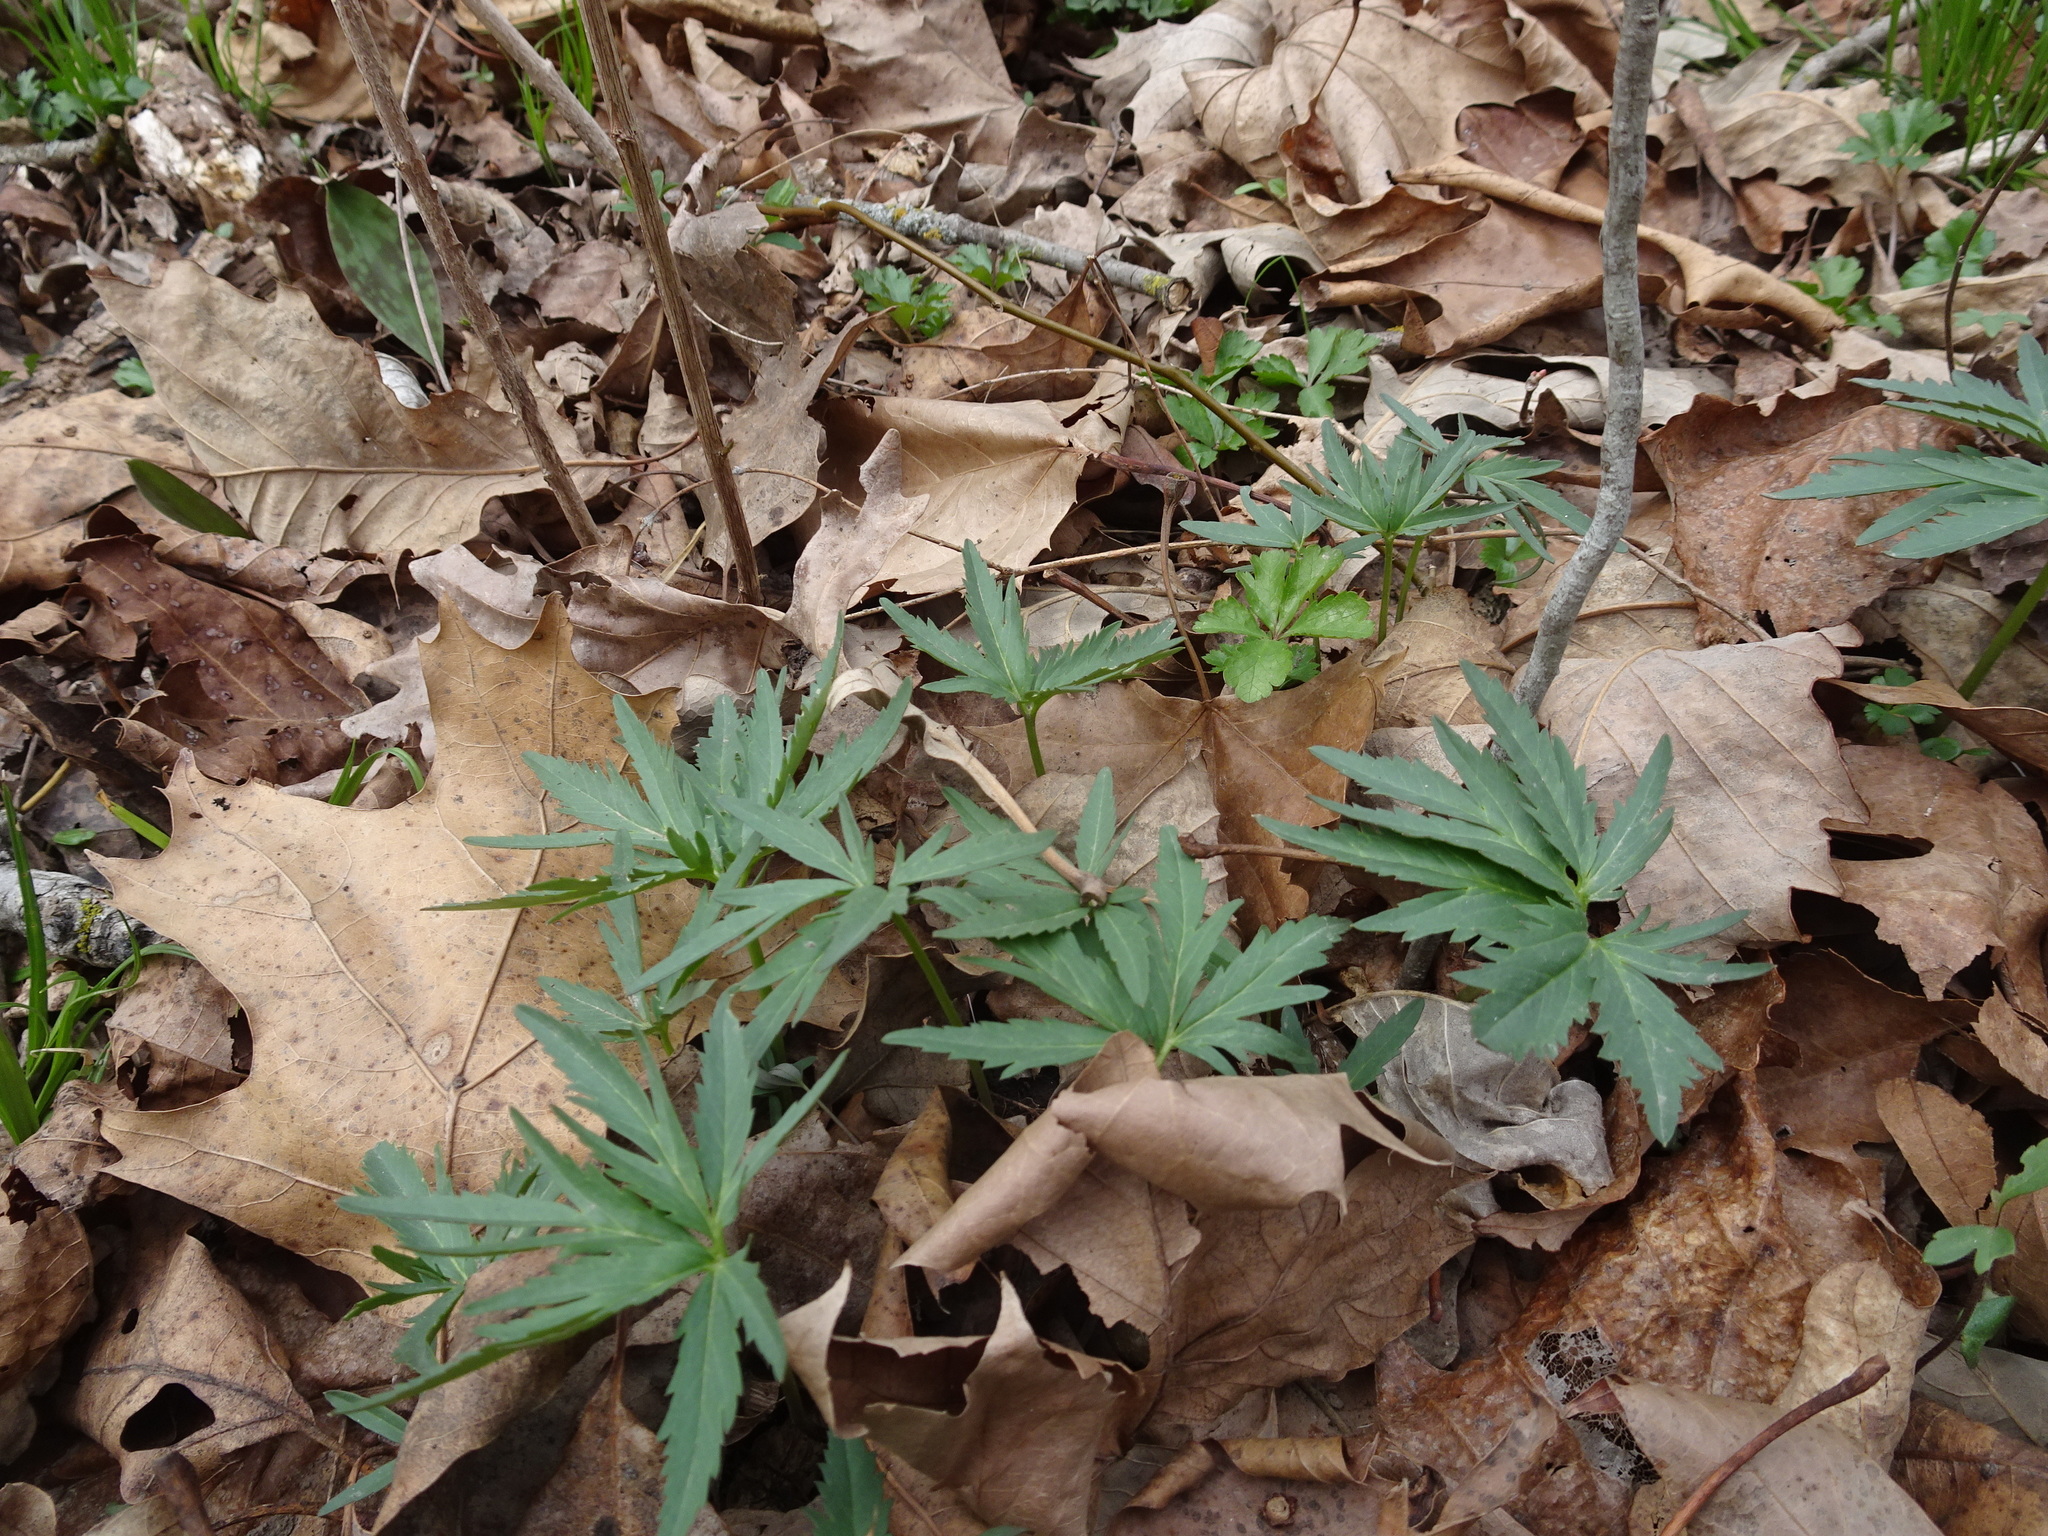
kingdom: Plantae
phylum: Tracheophyta
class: Magnoliopsida
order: Brassicales
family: Brassicaceae
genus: Cardamine
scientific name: Cardamine concatenata
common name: Cut-leaf toothcup
